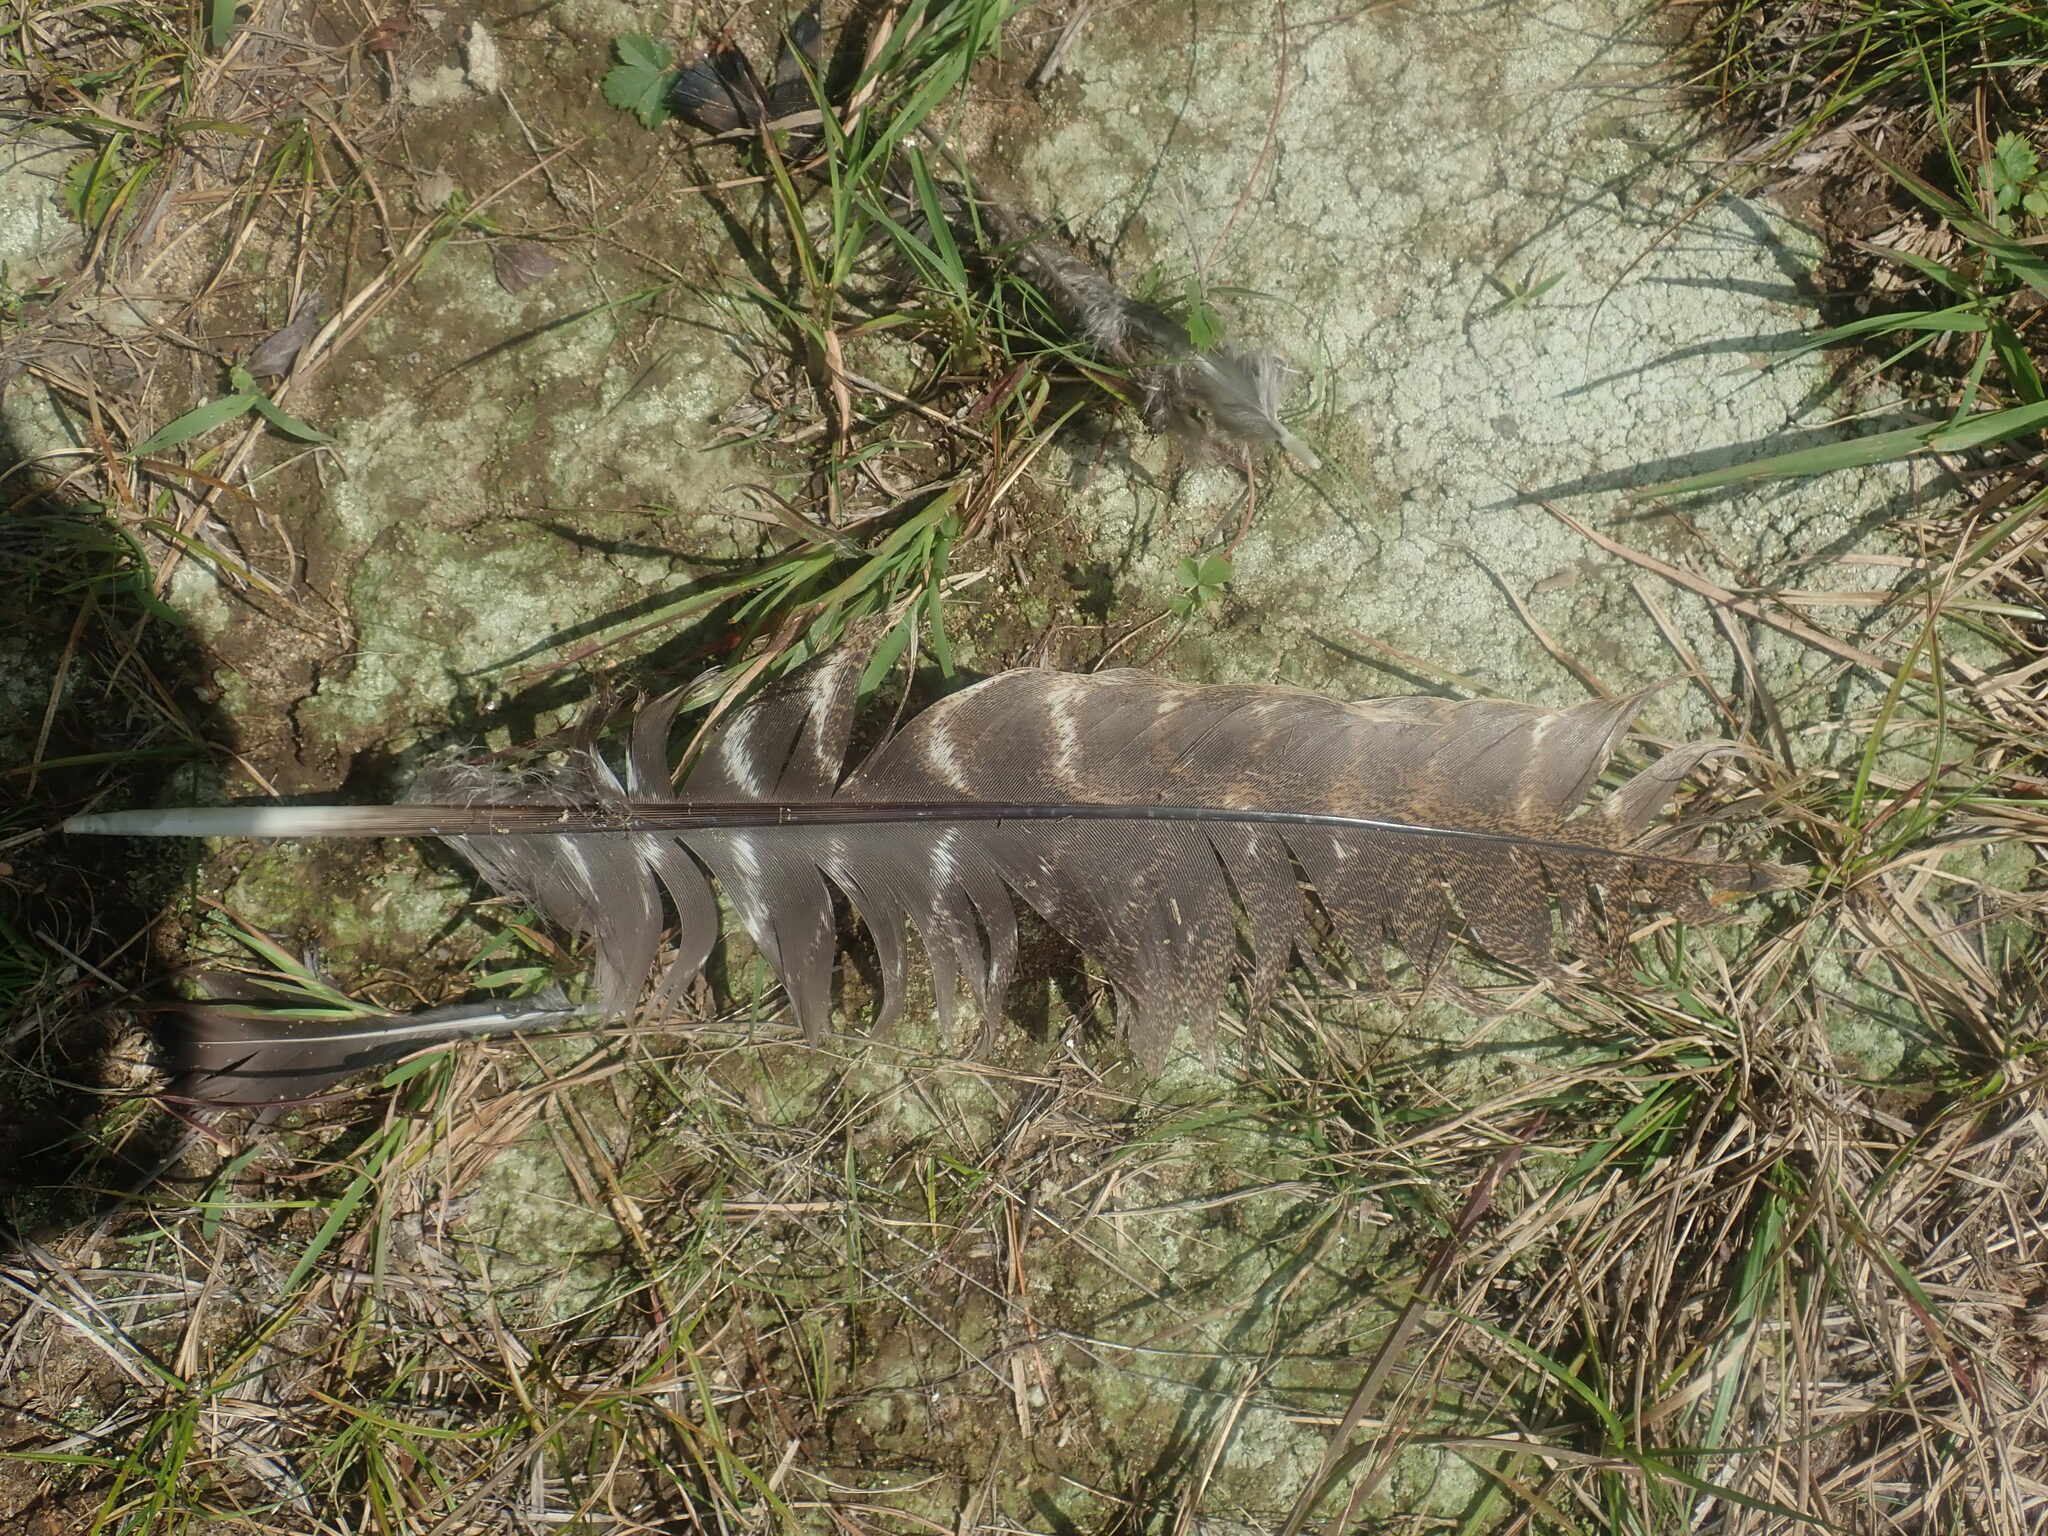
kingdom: Animalia
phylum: Chordata
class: Aves
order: Galliformes
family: Phasianidae
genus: Meleagris
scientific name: Meleagris gallopavo
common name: Wild turkey
